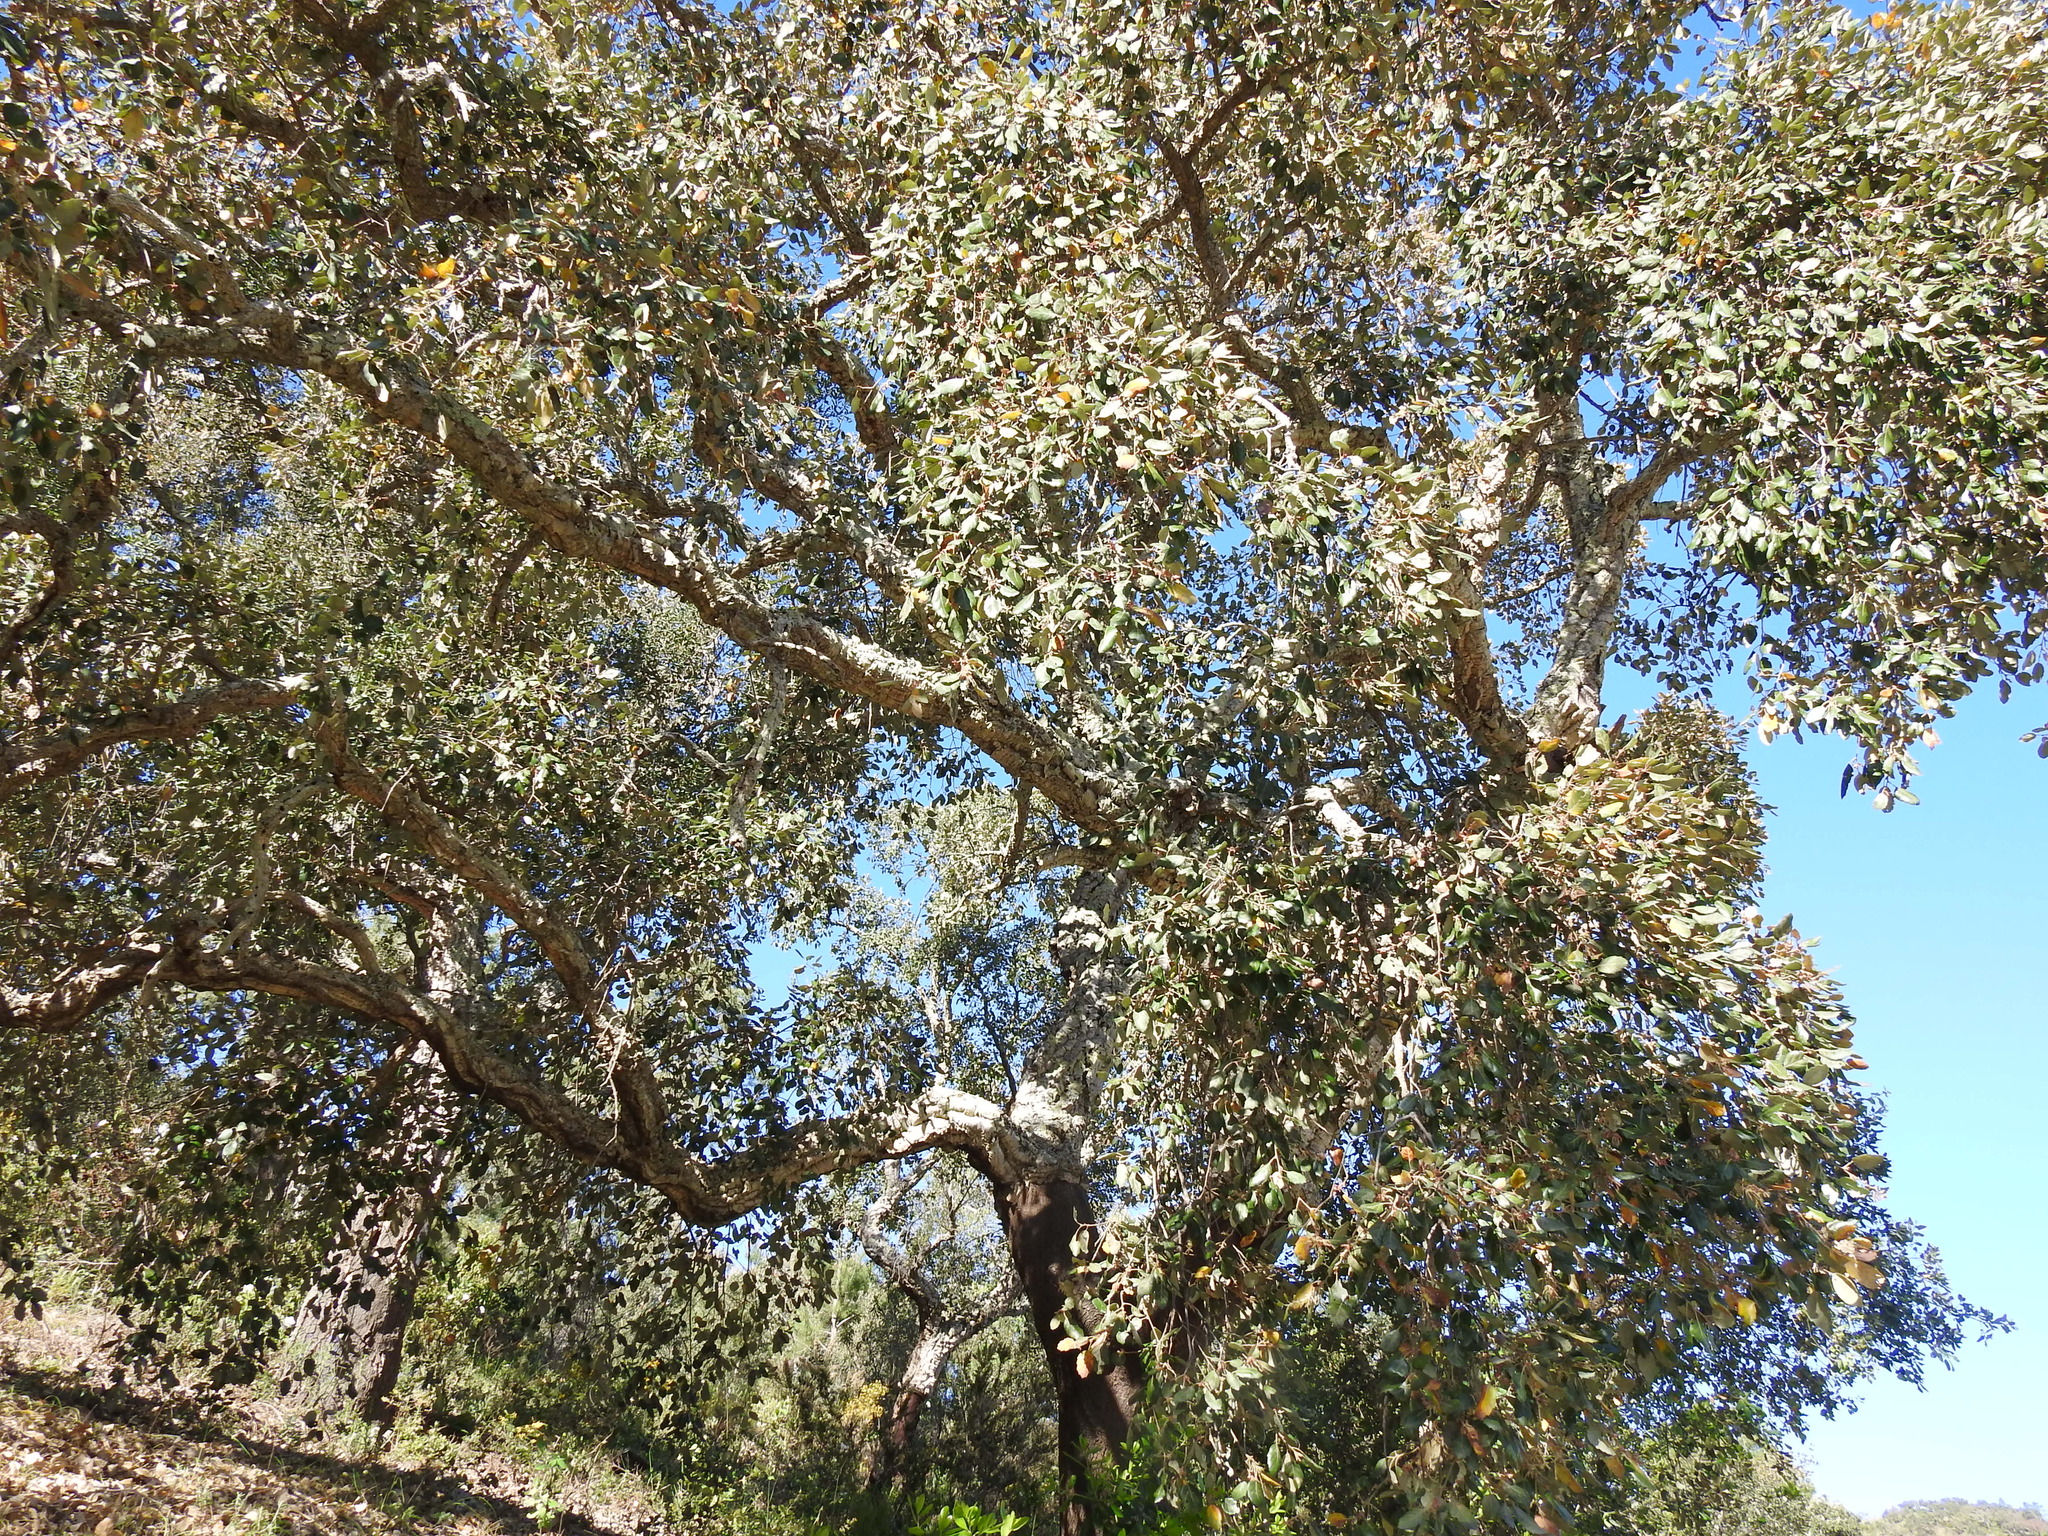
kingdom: Plantae
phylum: Tracheophyta
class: Magnoliopsida
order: Fagales
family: Fagaceae
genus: Quercus
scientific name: Quercus suber
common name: Cork oak
